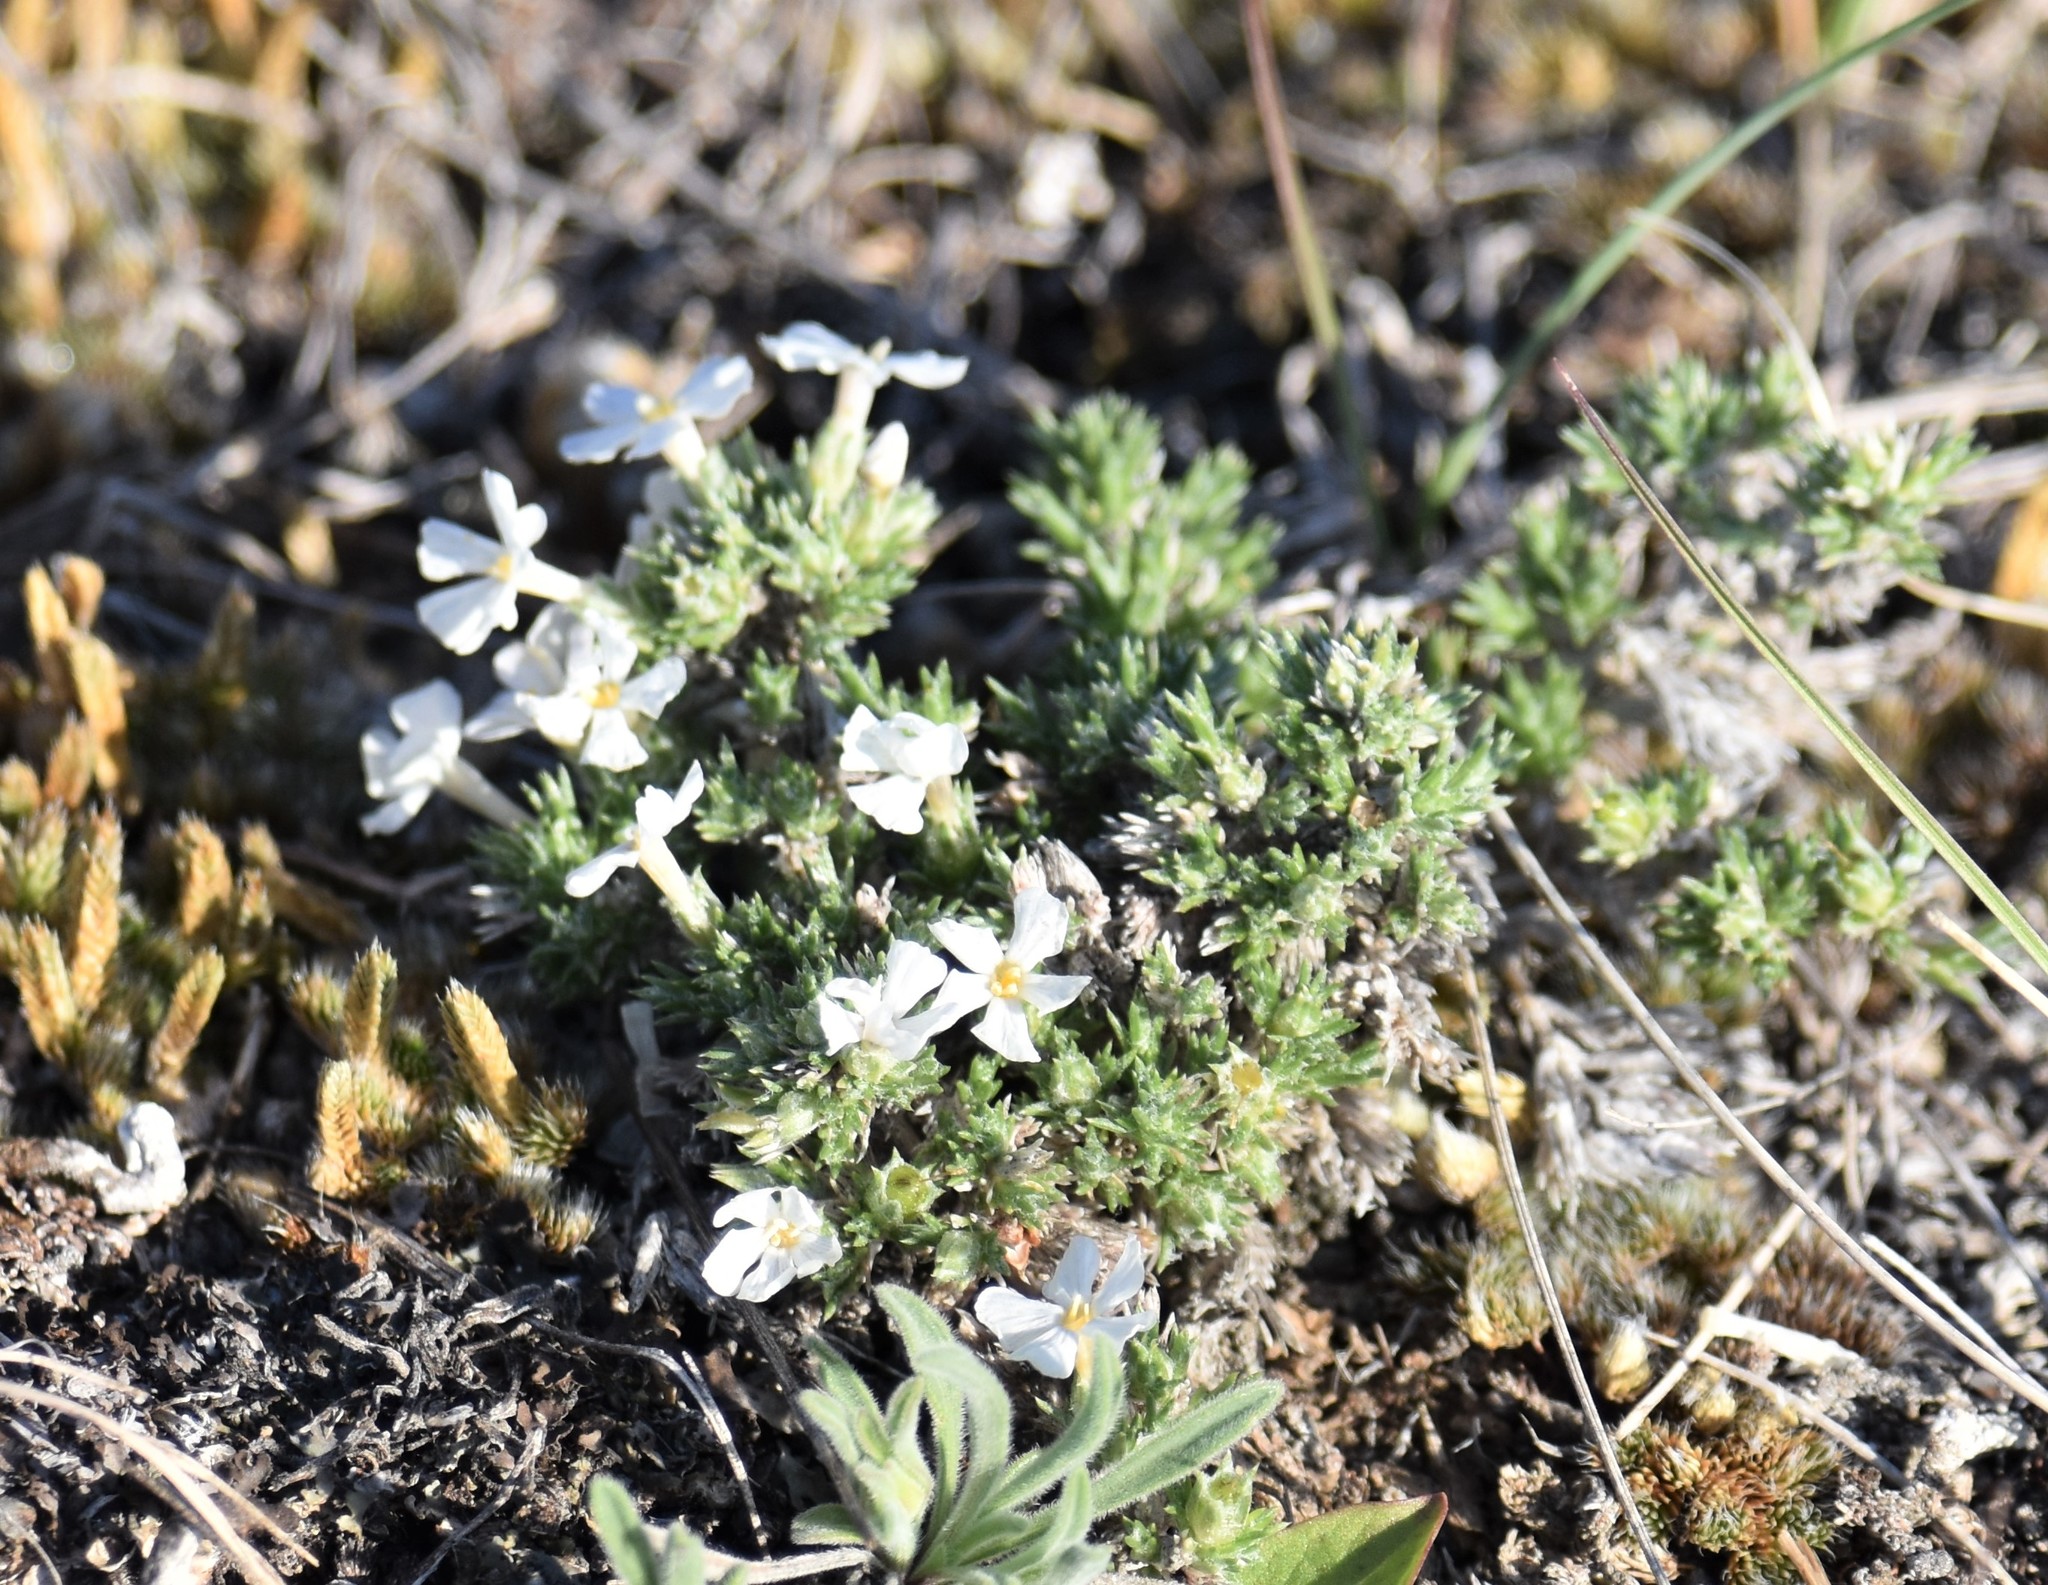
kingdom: Plantae
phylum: Tracheophyta
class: Magnoliopsida
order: Ericales
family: Polemoniaceae
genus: Phlox
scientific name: Phlox hoodii
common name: Moss phlox
